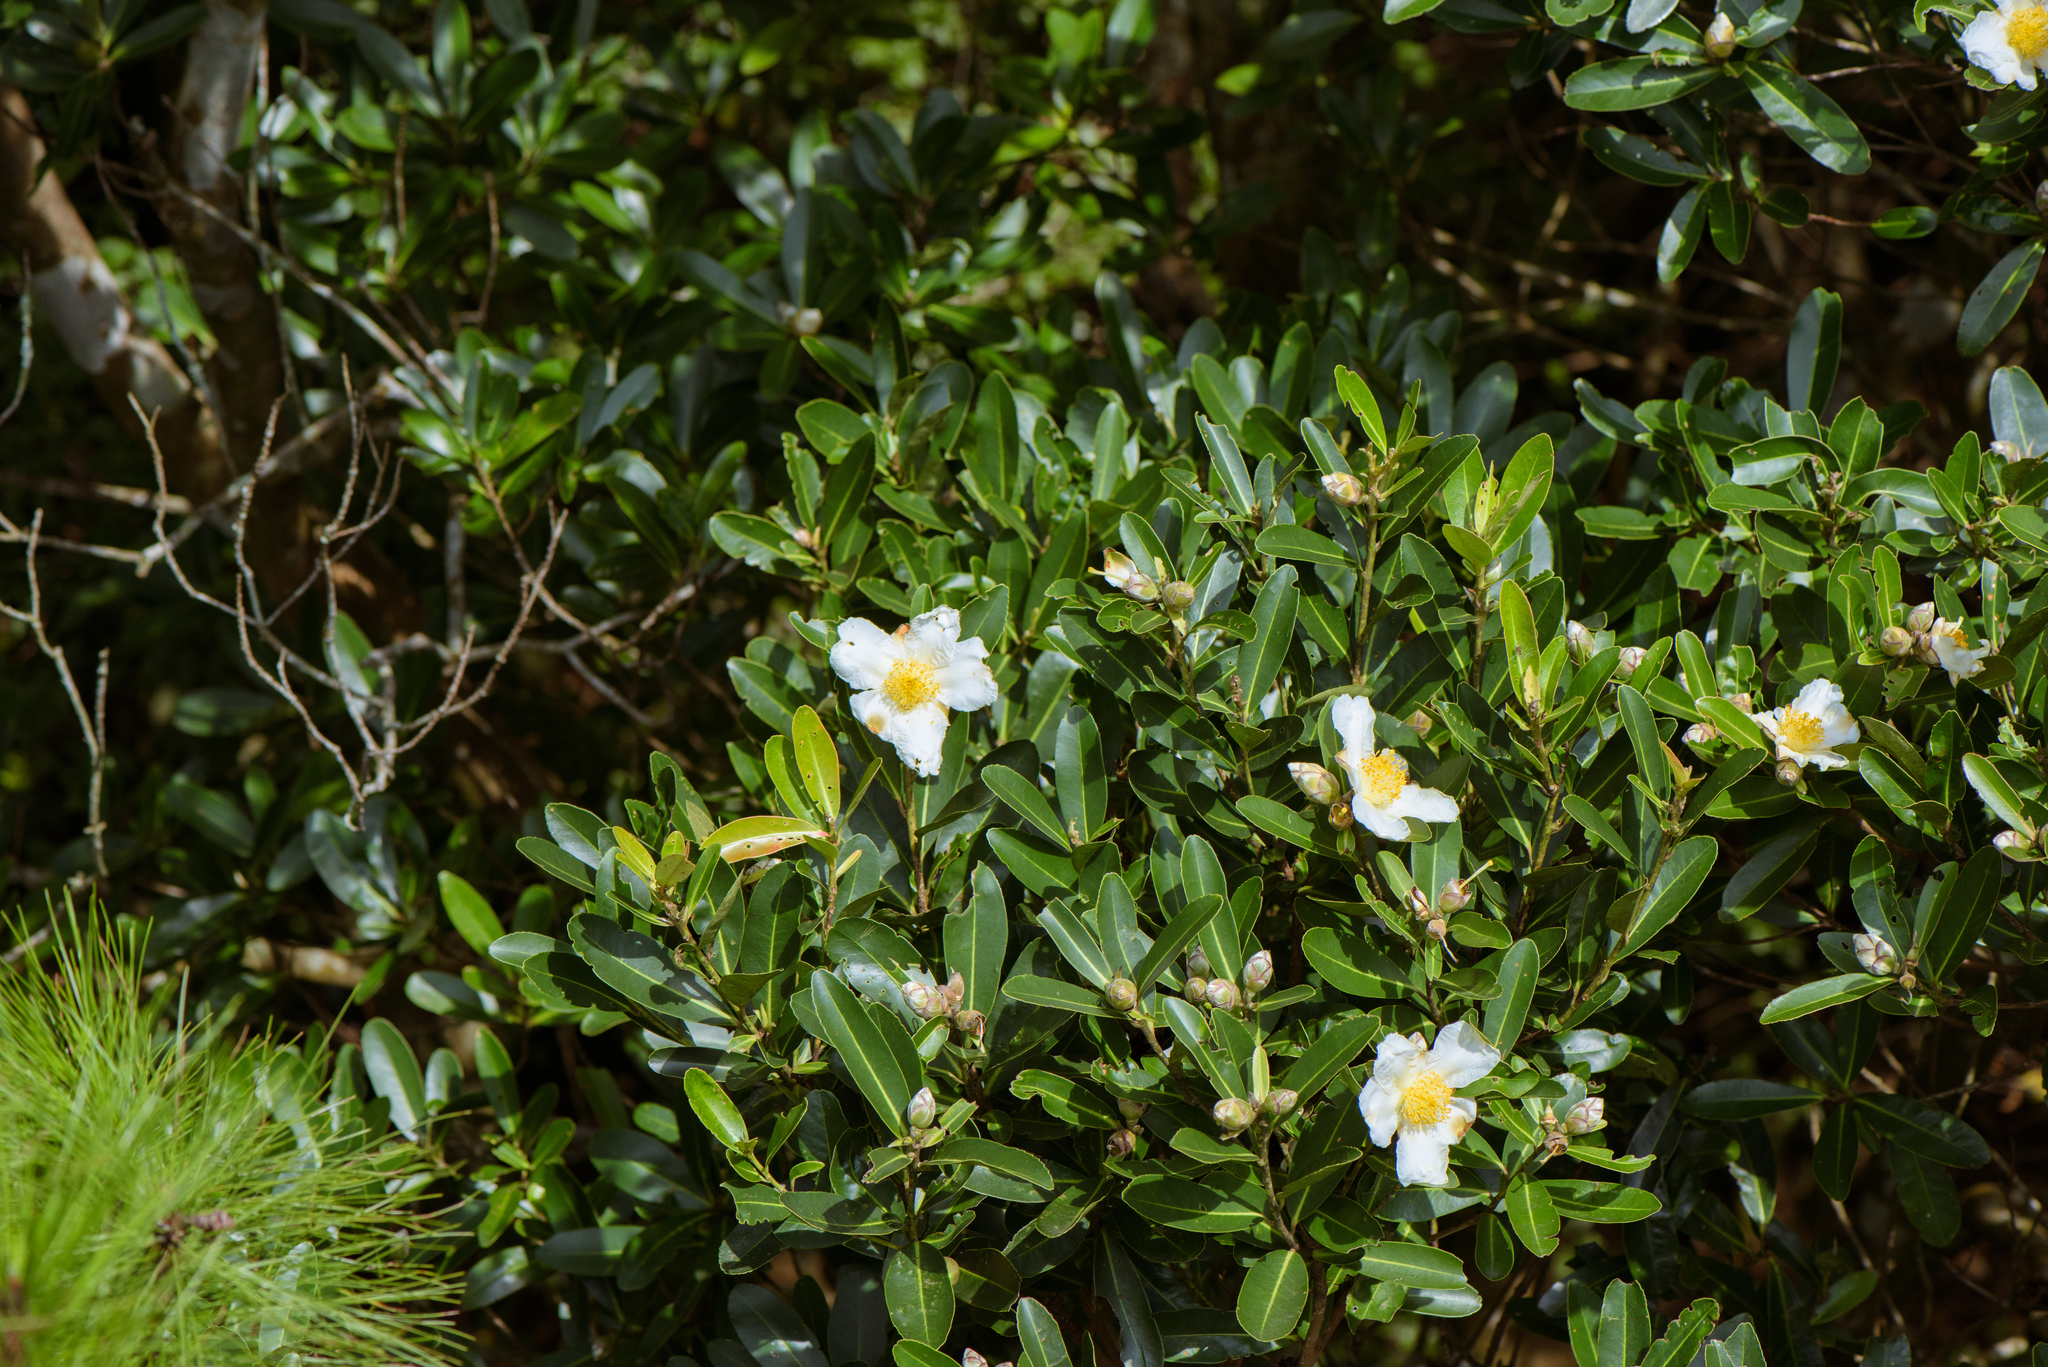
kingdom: Plantae
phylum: Tracheophyta
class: Magnoliopsida
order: Ericales
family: Theaceae
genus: Polyspora
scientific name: Polyspora axillaris
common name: Fried egg tree
